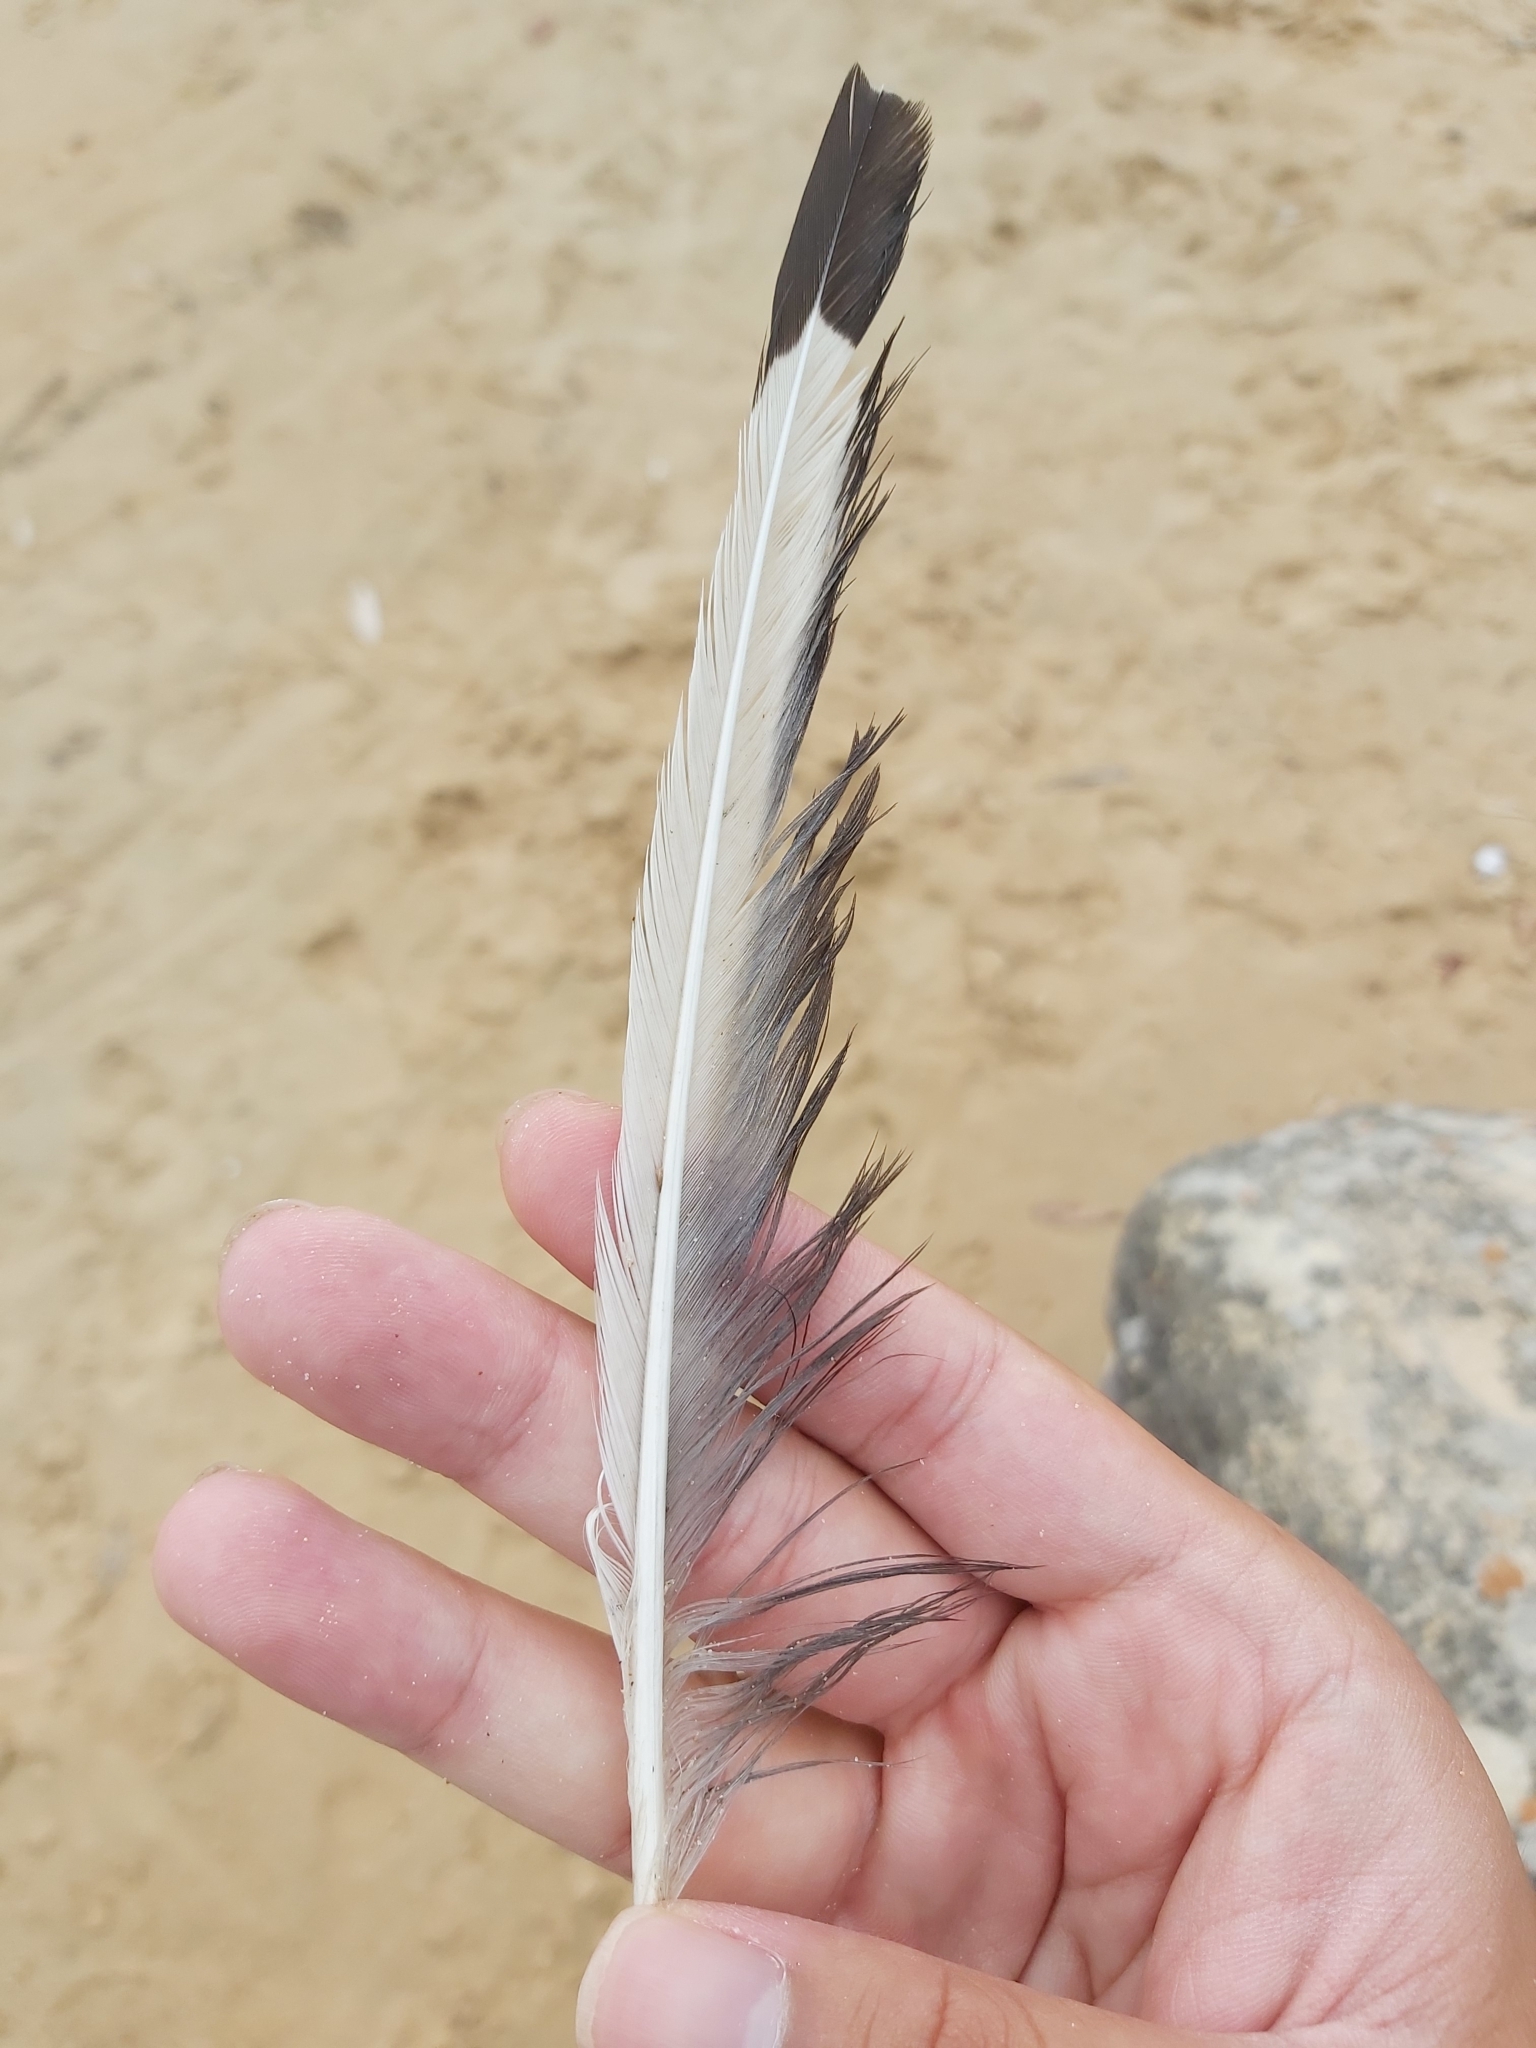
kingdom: Animalia
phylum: Chordata
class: Aves
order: Charadriiformes
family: Laridae
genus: Chroicocephalus
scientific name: Chroicocephalus novaehollandiae
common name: Silver gull
